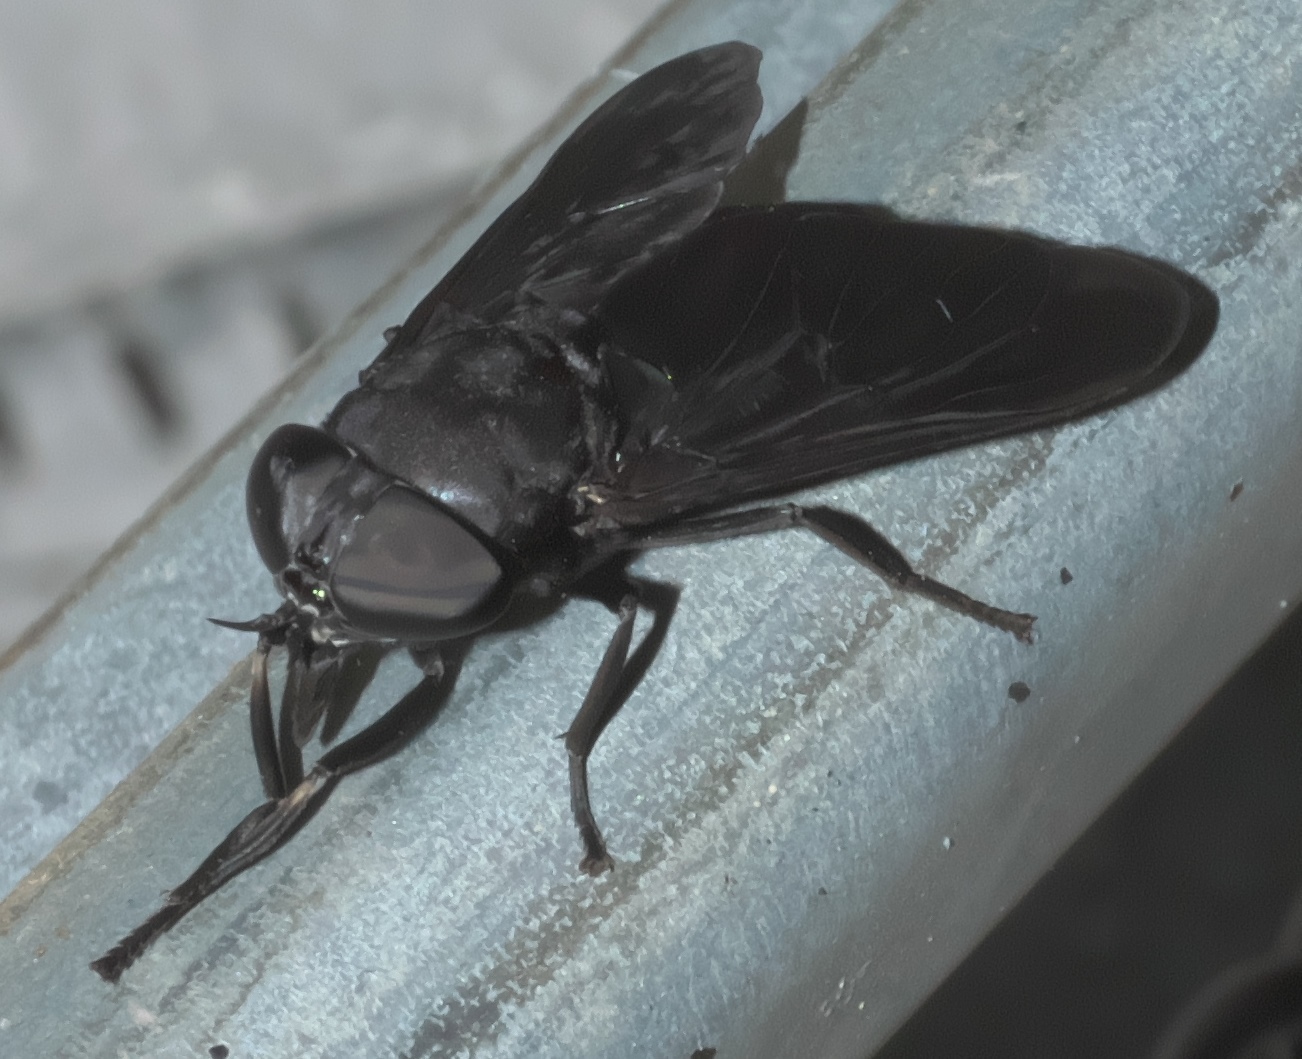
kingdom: Animalia
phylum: Arthropoda
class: Insecta
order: Diptera
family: Tabanidae
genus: Tabanus
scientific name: Tabanus atratus
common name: Black horse fly
